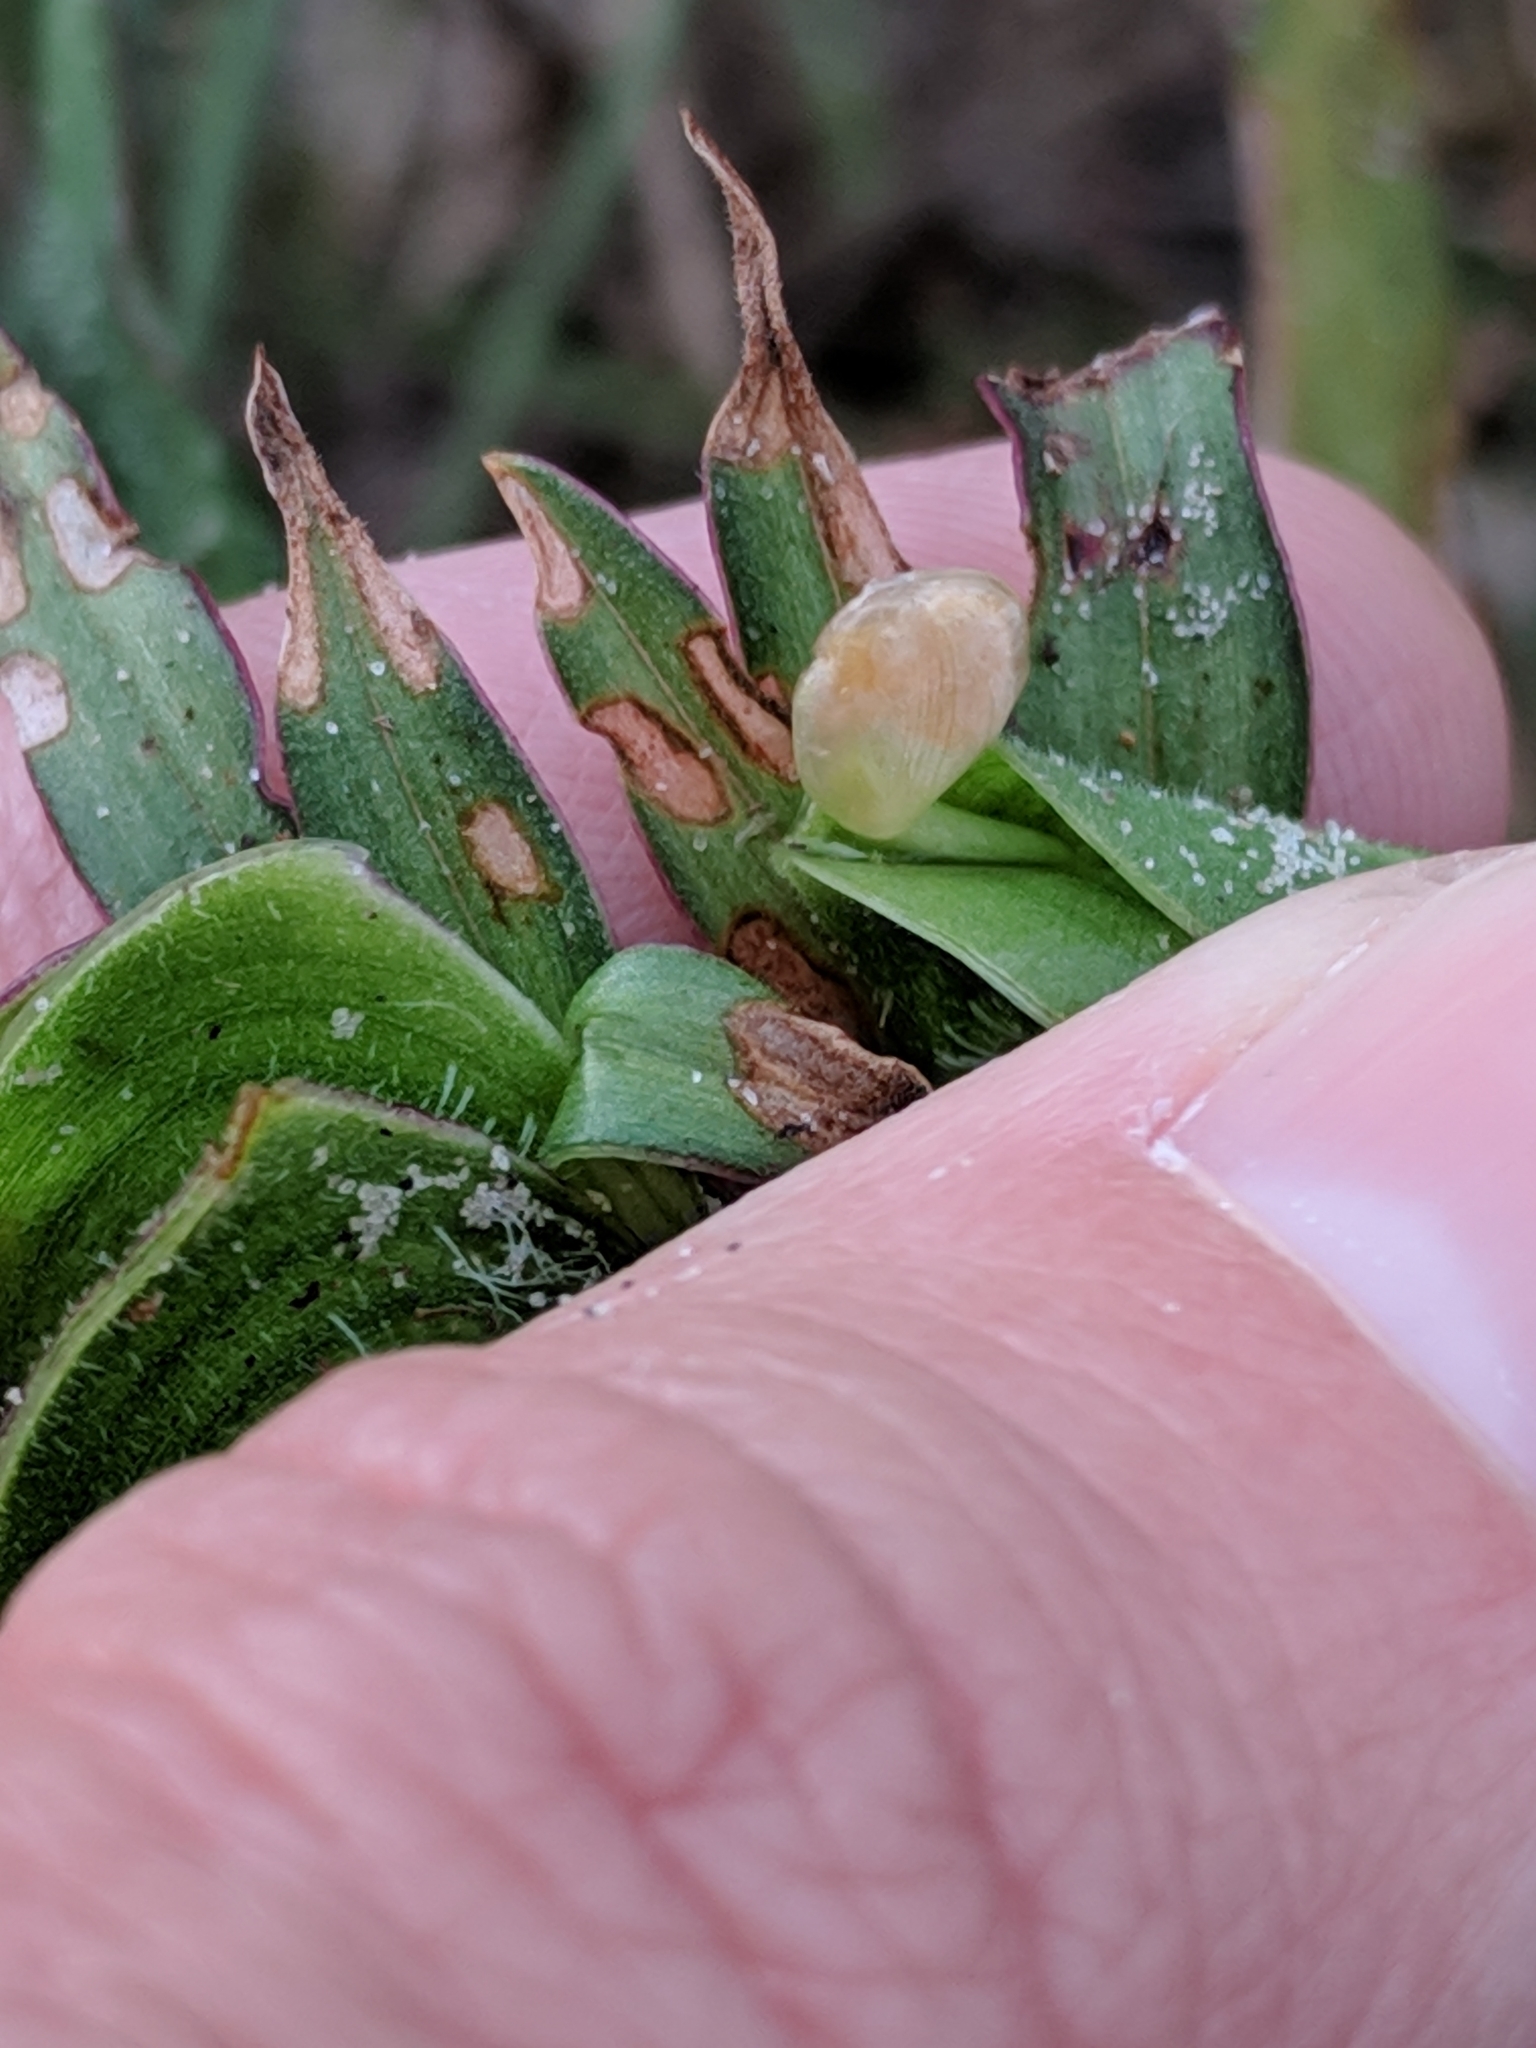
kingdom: Plantae
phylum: Tracheophyta
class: Liliopsida
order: Commelinales
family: Commelinaceae
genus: Commelina
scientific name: Commelina erecta
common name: Blousel blommetjie
